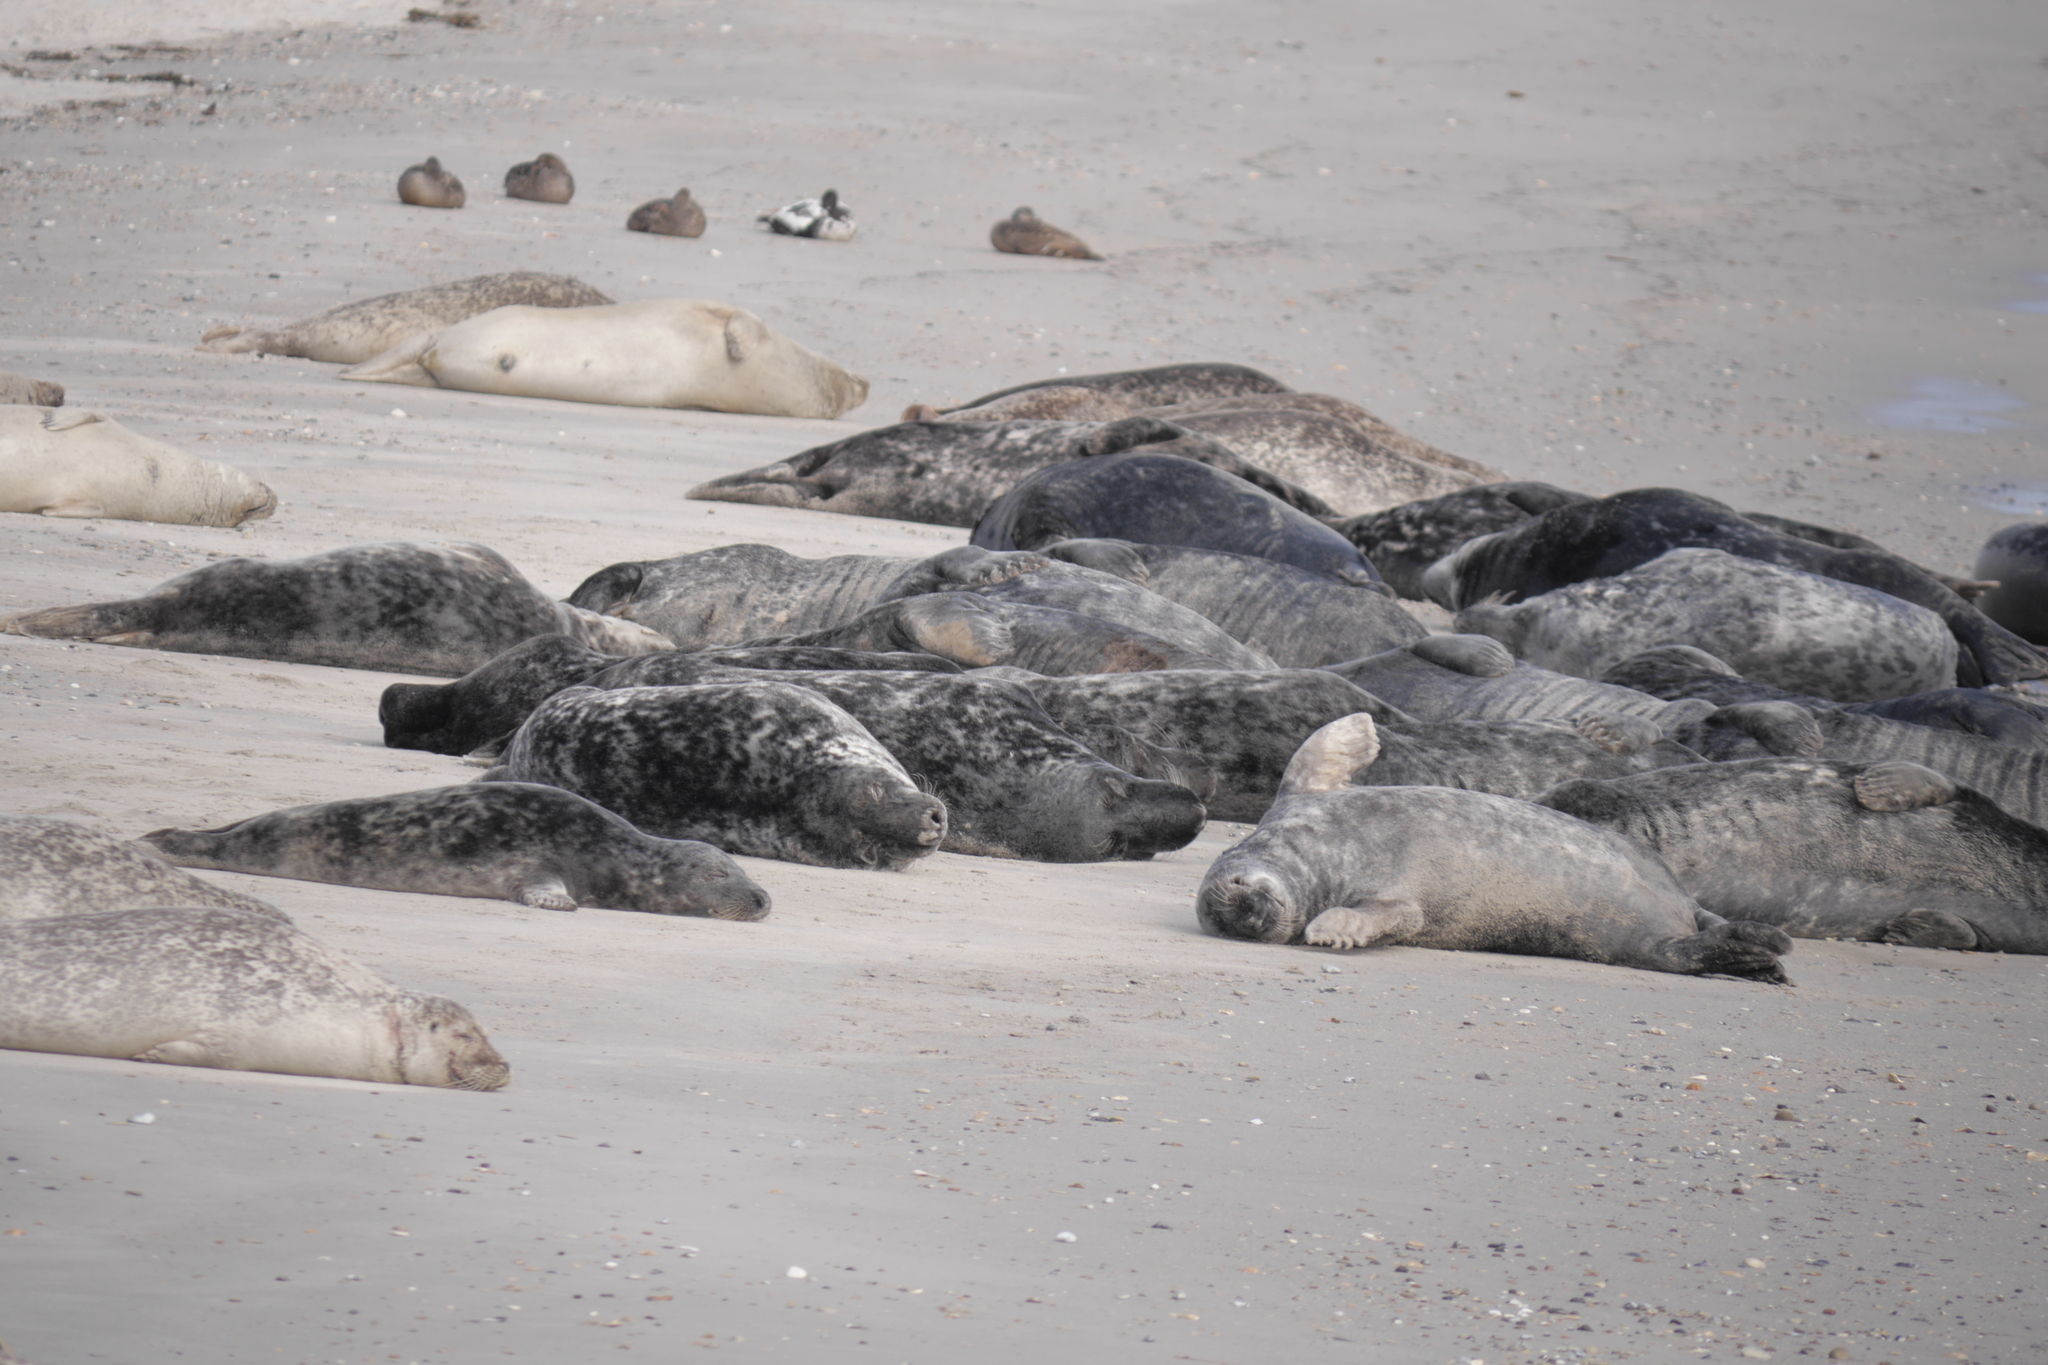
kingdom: Animalia
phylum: Chordata
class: Mammalia
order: Carnivora
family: Phocidae
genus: Halichoerus
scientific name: Halichoerus grypus
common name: Grey seal
